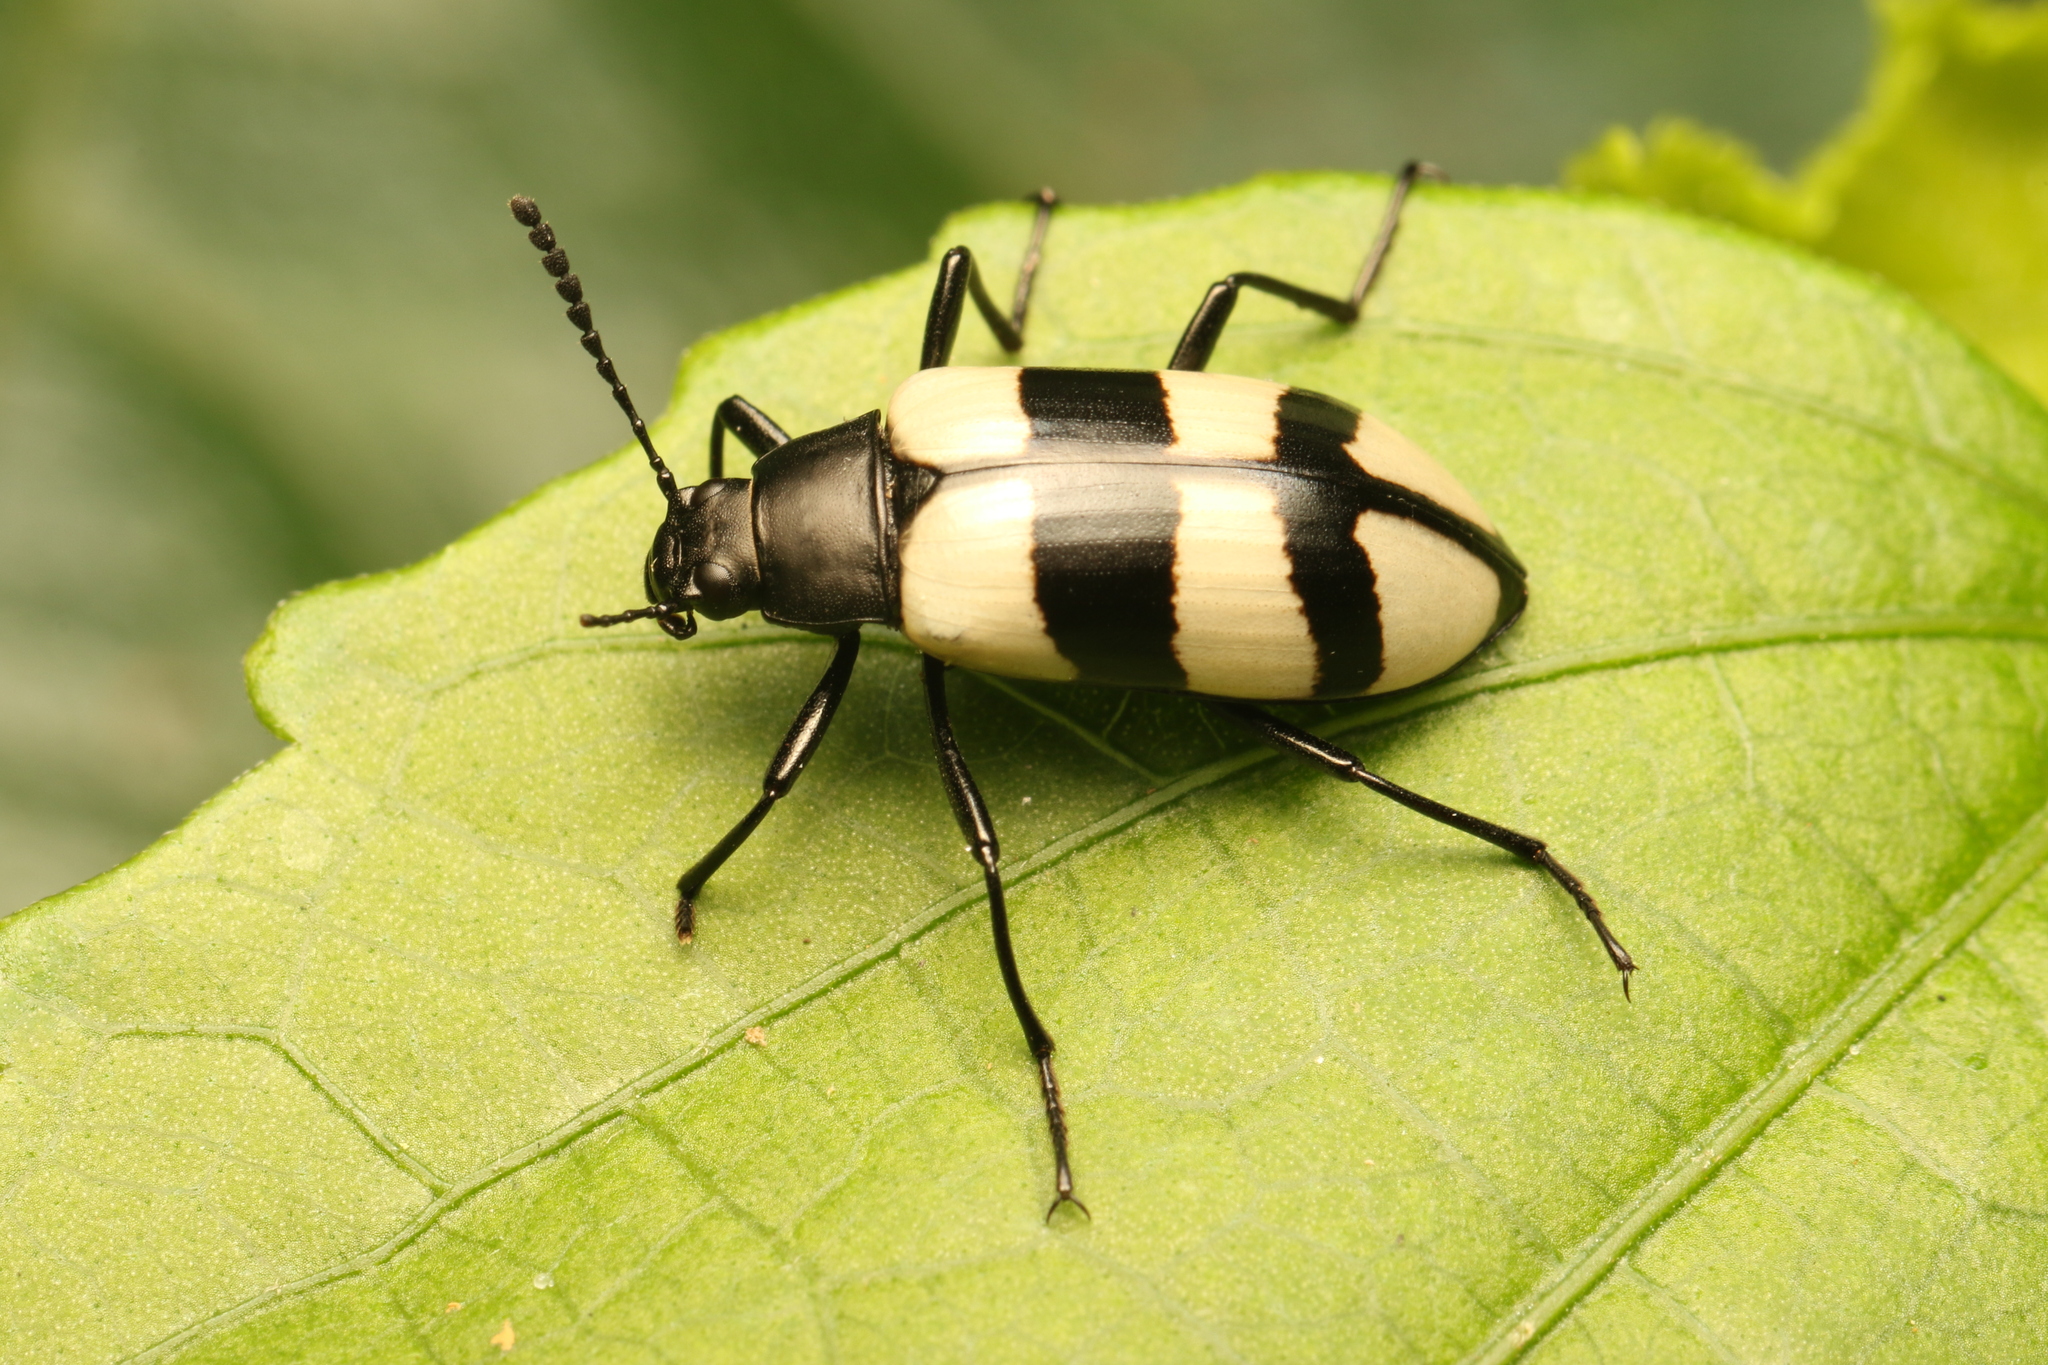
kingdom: Animalia
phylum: Arthropoda
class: Insecta
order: Coleoptera
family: Tenebrionidae
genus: Poecilesthus
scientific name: Poecilesthus
